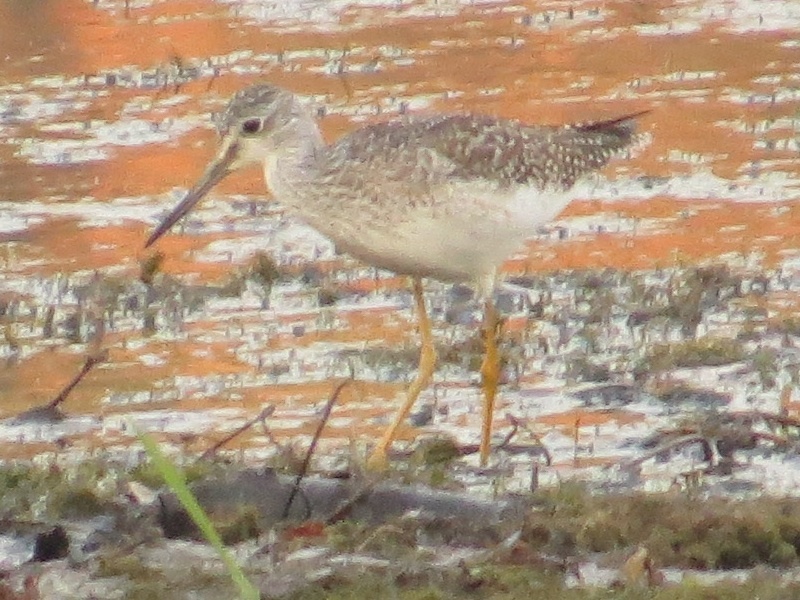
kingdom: Animalia
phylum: Chordata
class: Aves
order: Charadriiformes
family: Scolopacidae
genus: Tringa
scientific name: Tringa melanoleuca
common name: Greater yellowlegs
